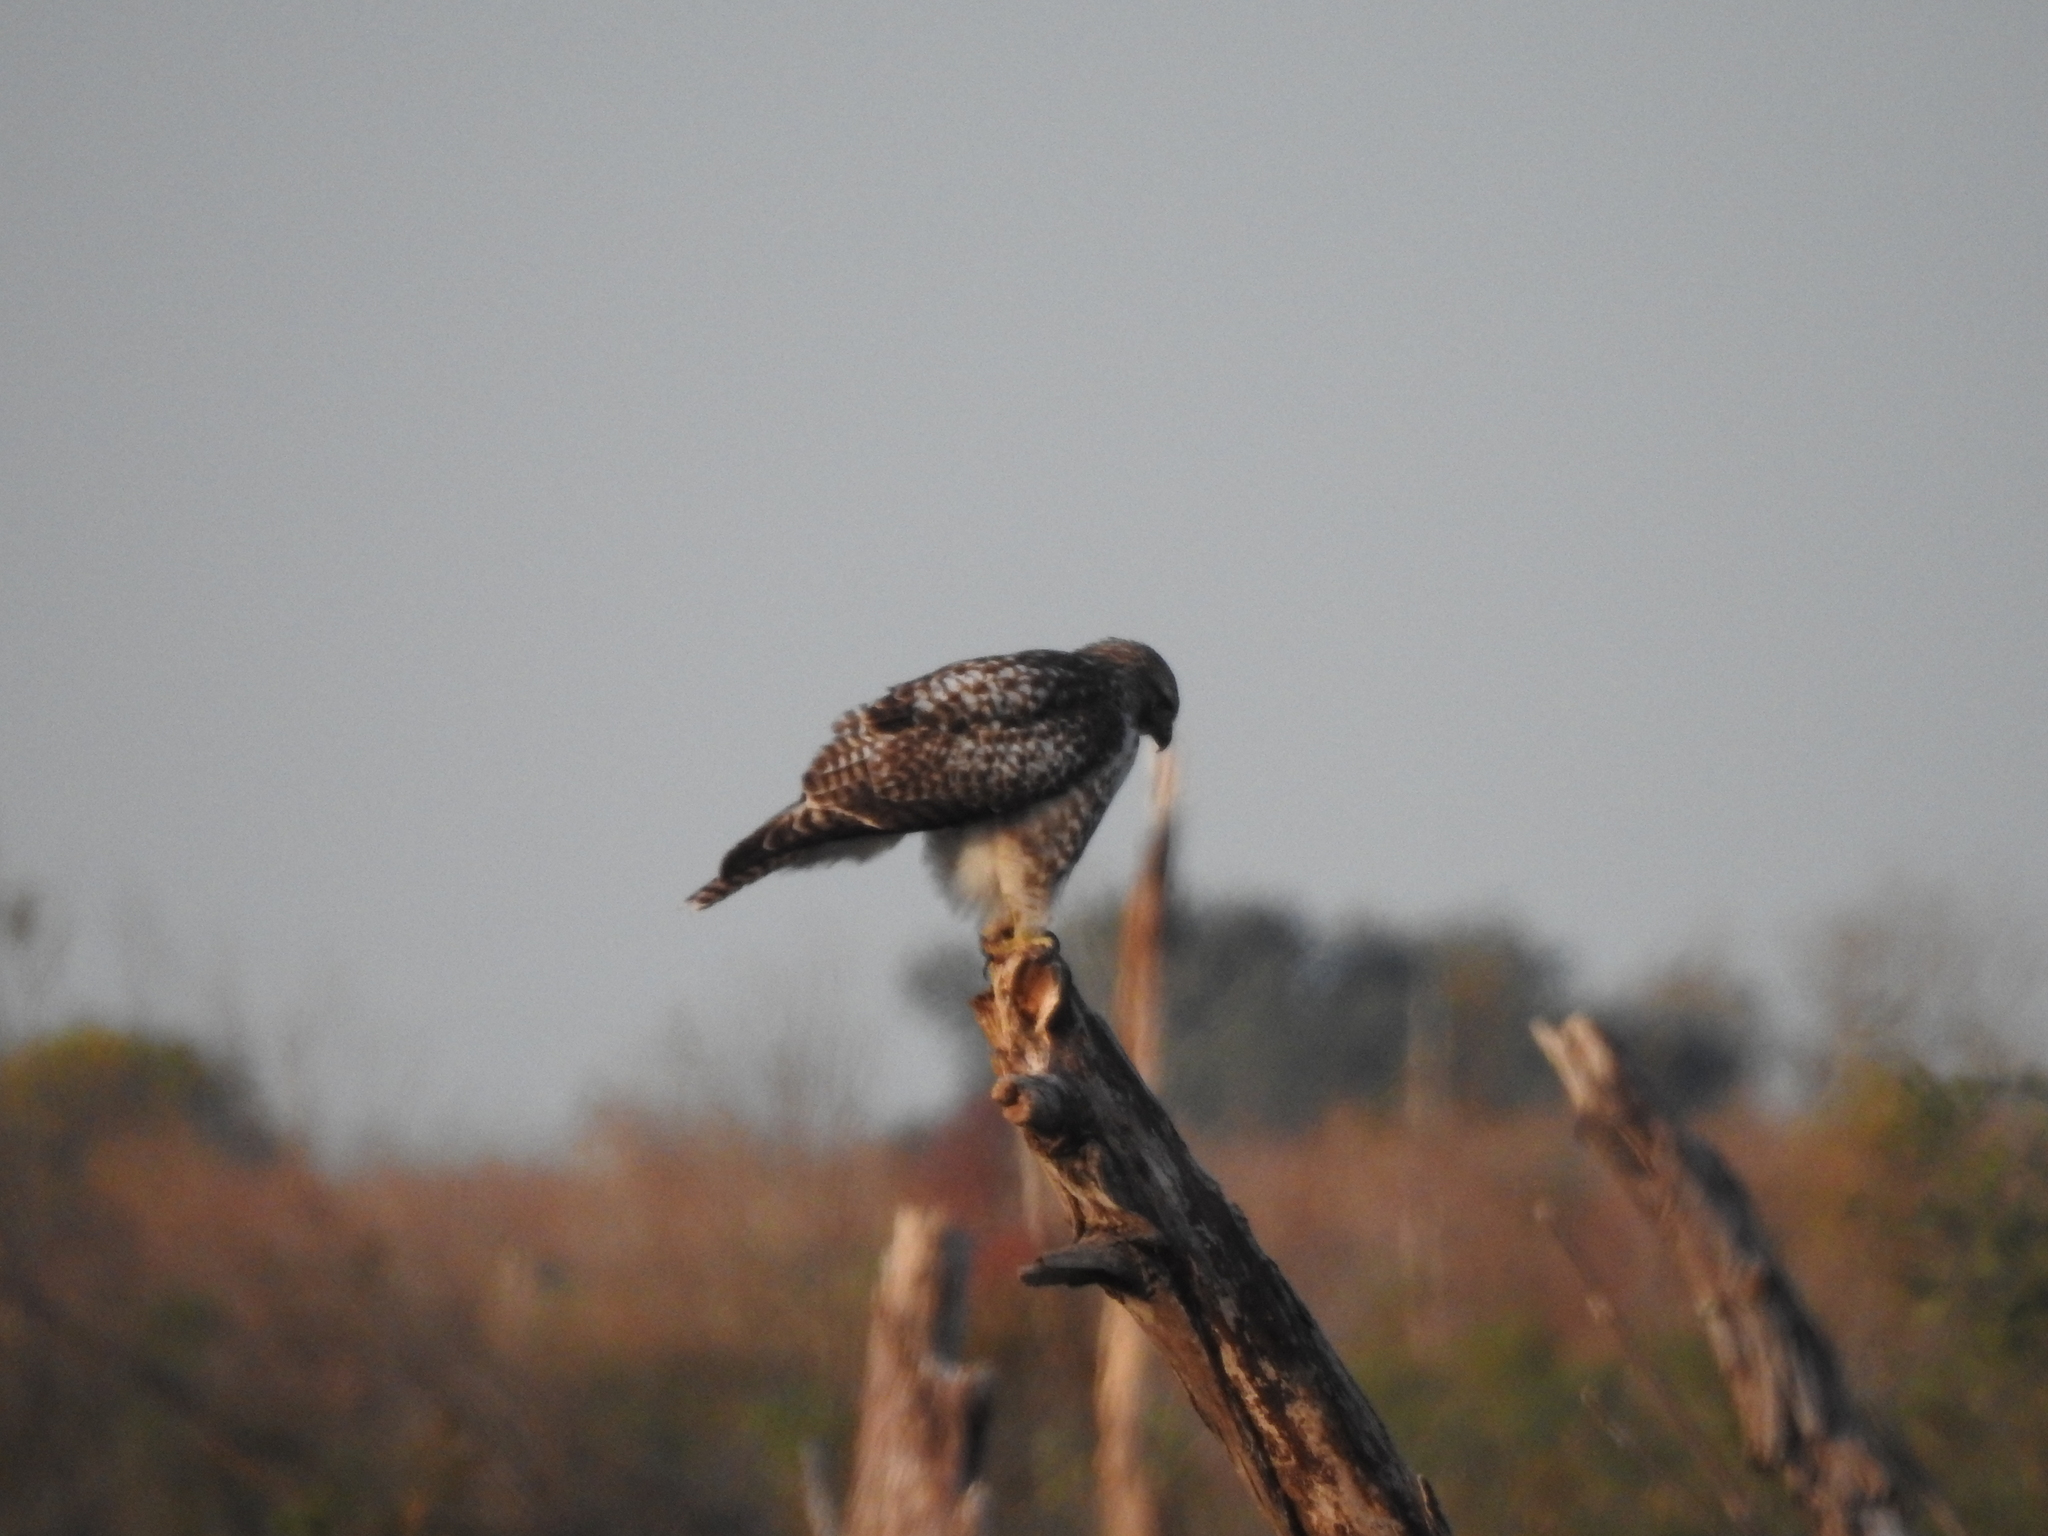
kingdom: Animalia
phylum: Chordata
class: Aves
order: Accipitriformes
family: Accipitridae
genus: Buteo
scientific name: Buteo jamaicensis
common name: Red-tailed hawk
